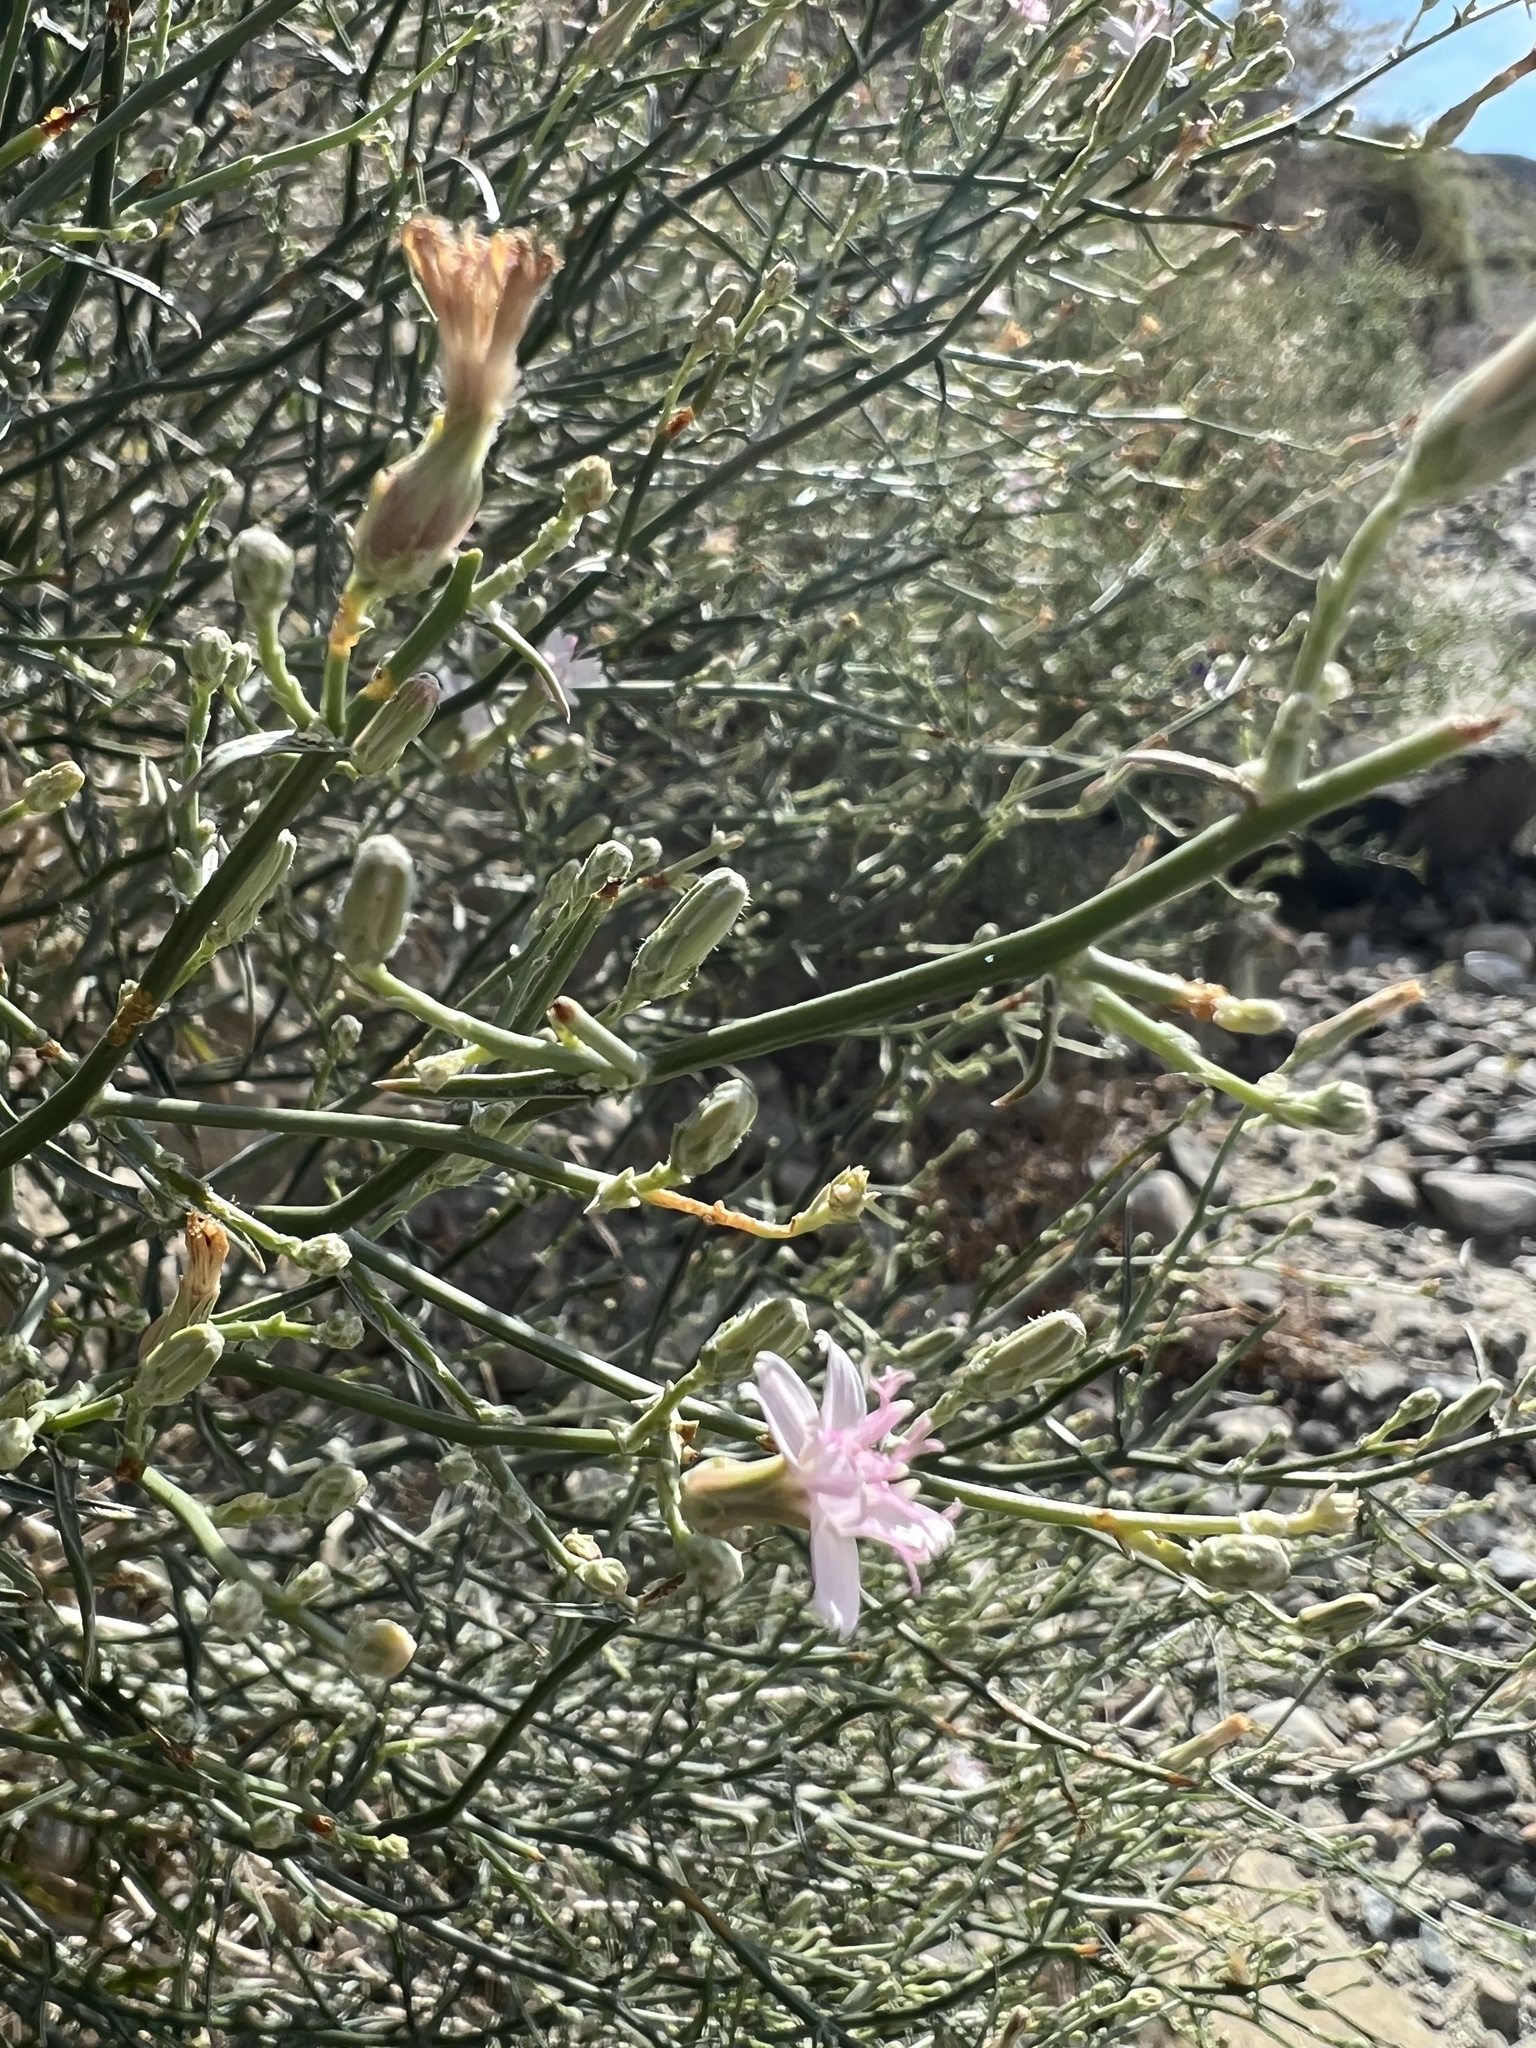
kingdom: Plantae
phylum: Tracheophyta
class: Magnoliopsida
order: Asterales
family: Asteraceae
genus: Stephanomeria
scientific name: Stephanomeria pauciflora
